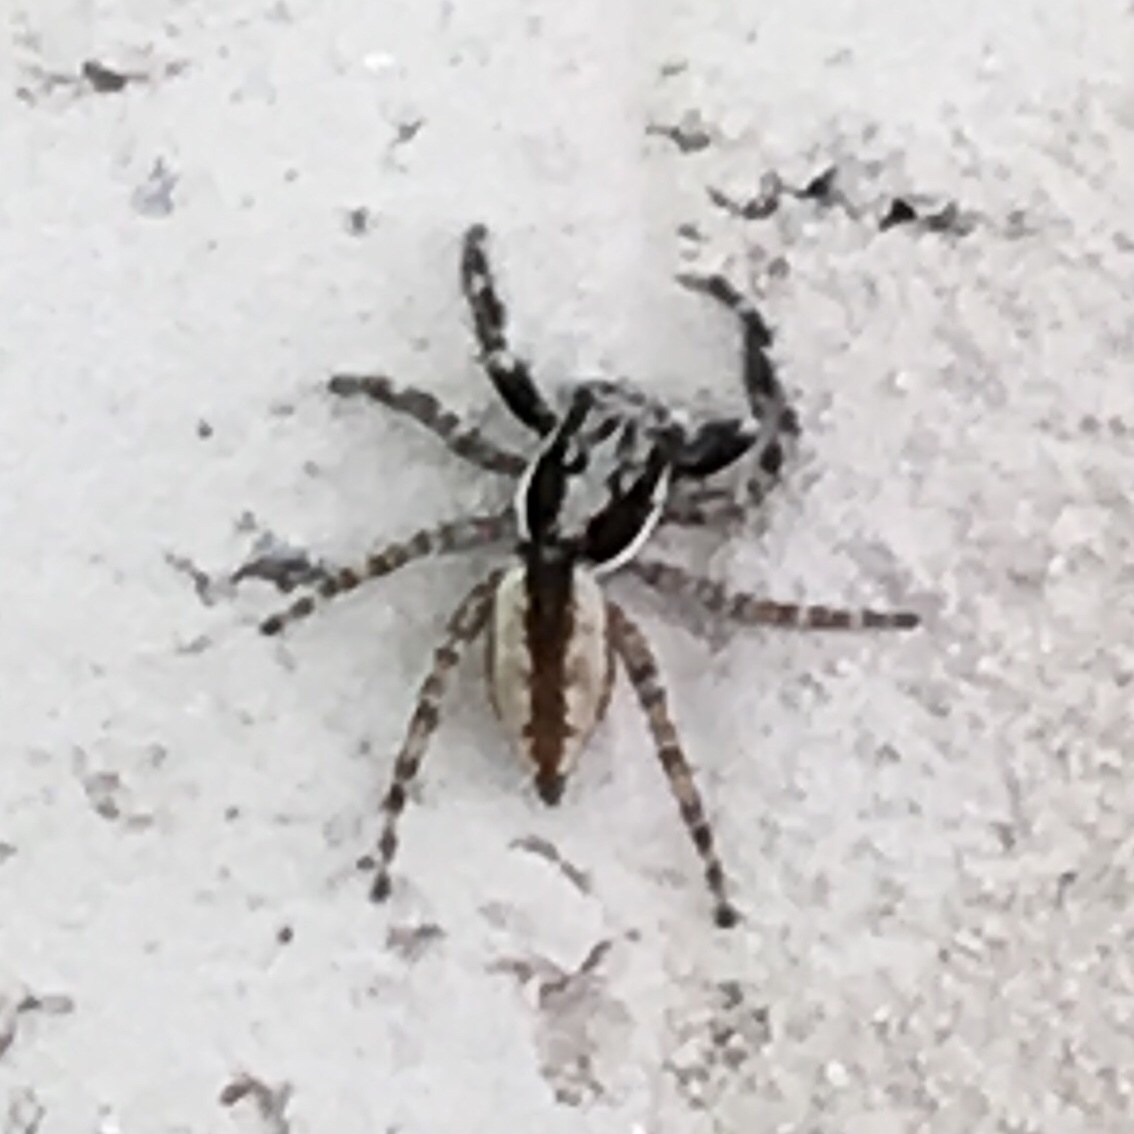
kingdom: Animalia
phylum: Arthropoda
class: Arachnida
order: Araneae
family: Salticidae
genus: Menemerus
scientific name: Menemerus bivittatus
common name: Gray wall jumper
